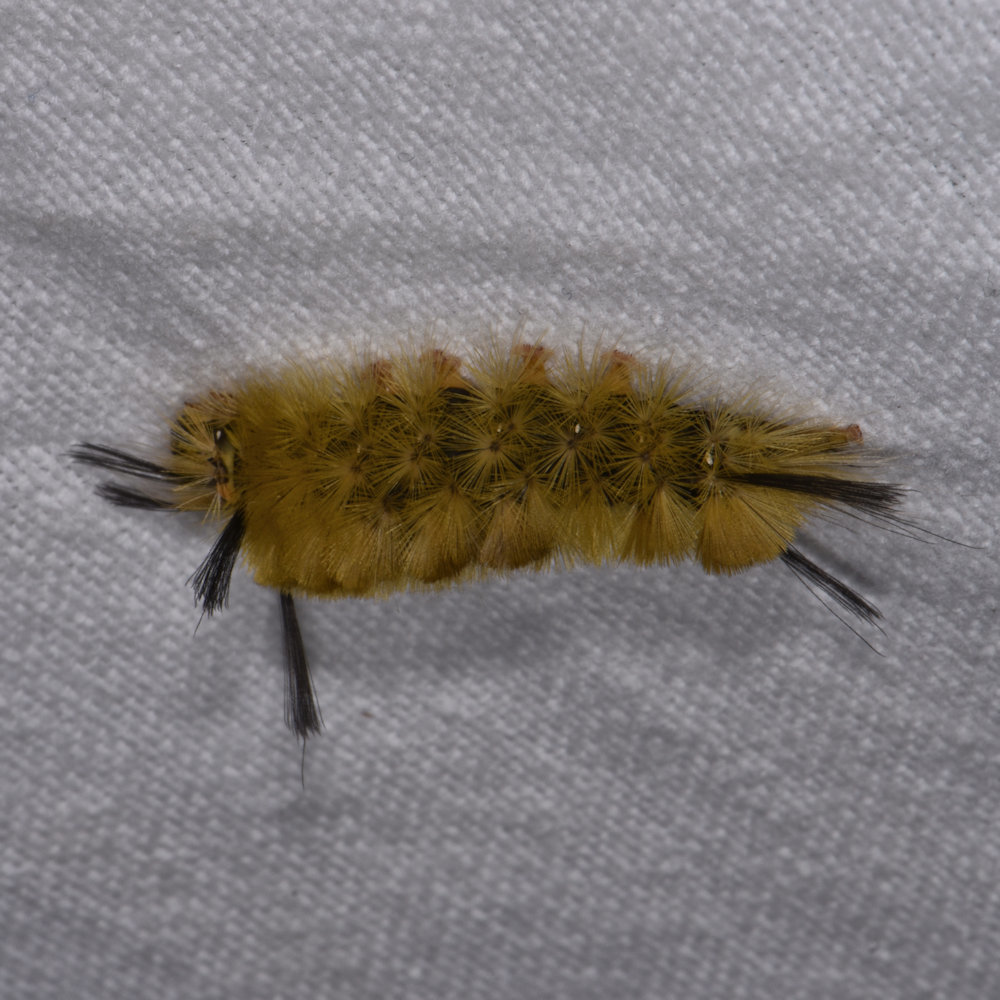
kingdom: Animalia
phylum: Arthropoda
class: Insecta
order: Lepidoptera
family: Erebidae
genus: Halysidota
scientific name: Halysidota tessellaris
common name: Banded tussock moth
